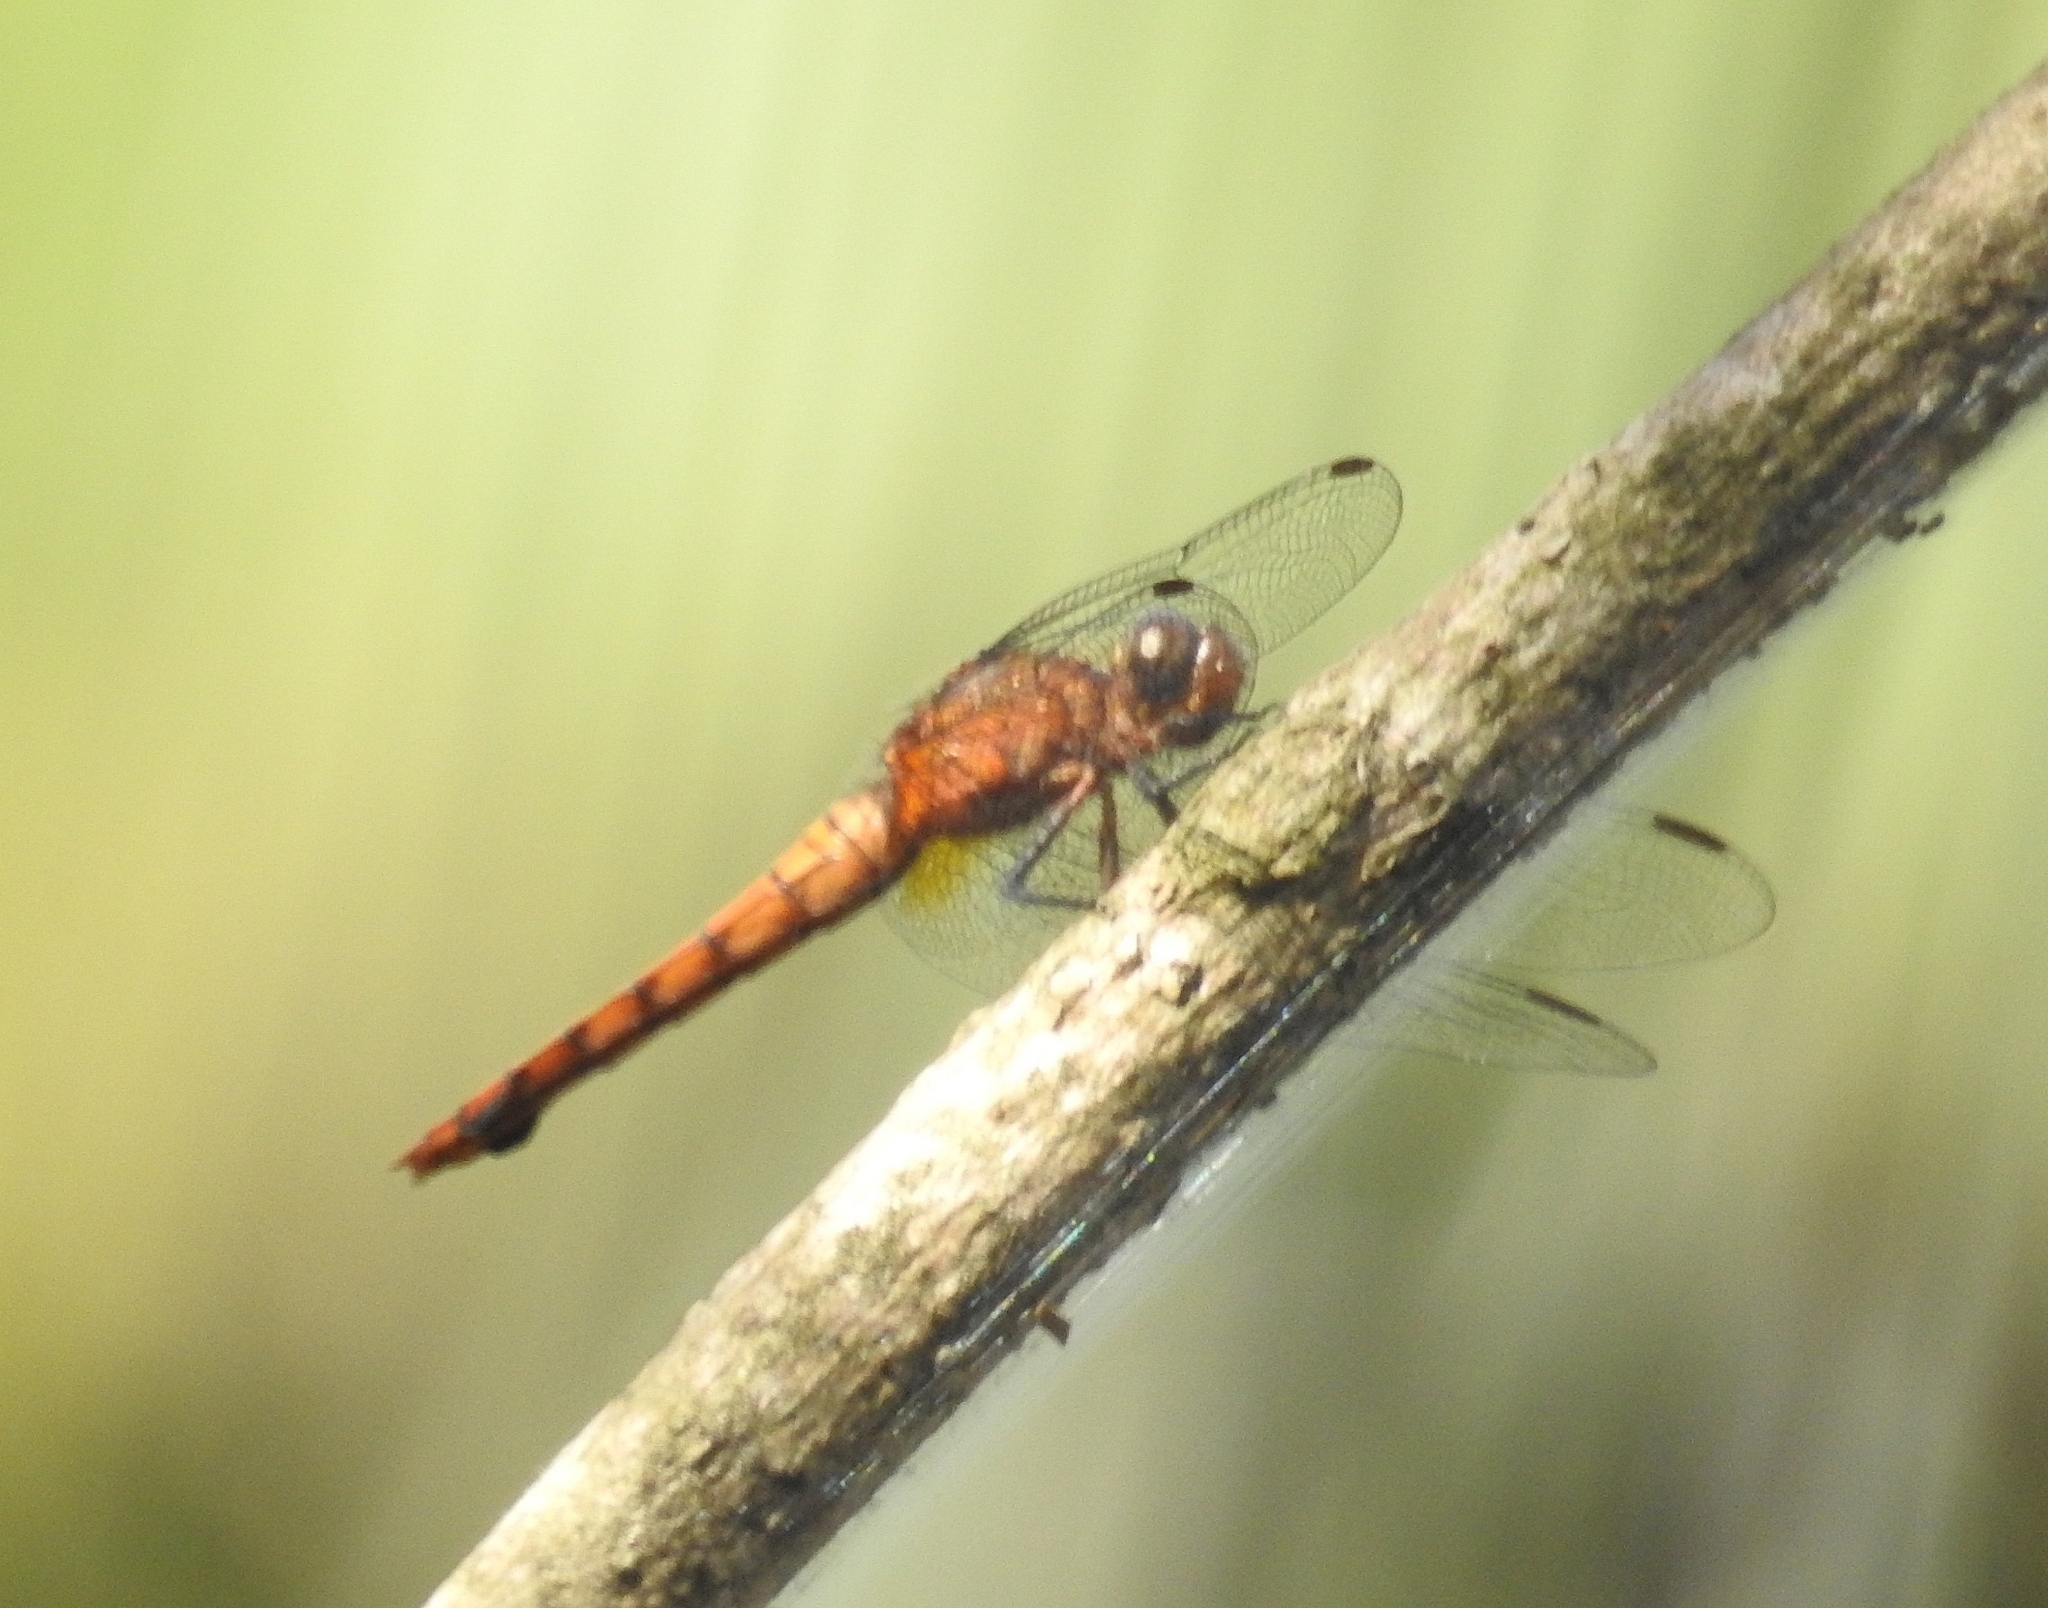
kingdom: Animalia
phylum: Arthropoda
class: Insecta
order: Odonata
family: Libellulidae
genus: Orthetrum
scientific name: Orthetrum chrysis
